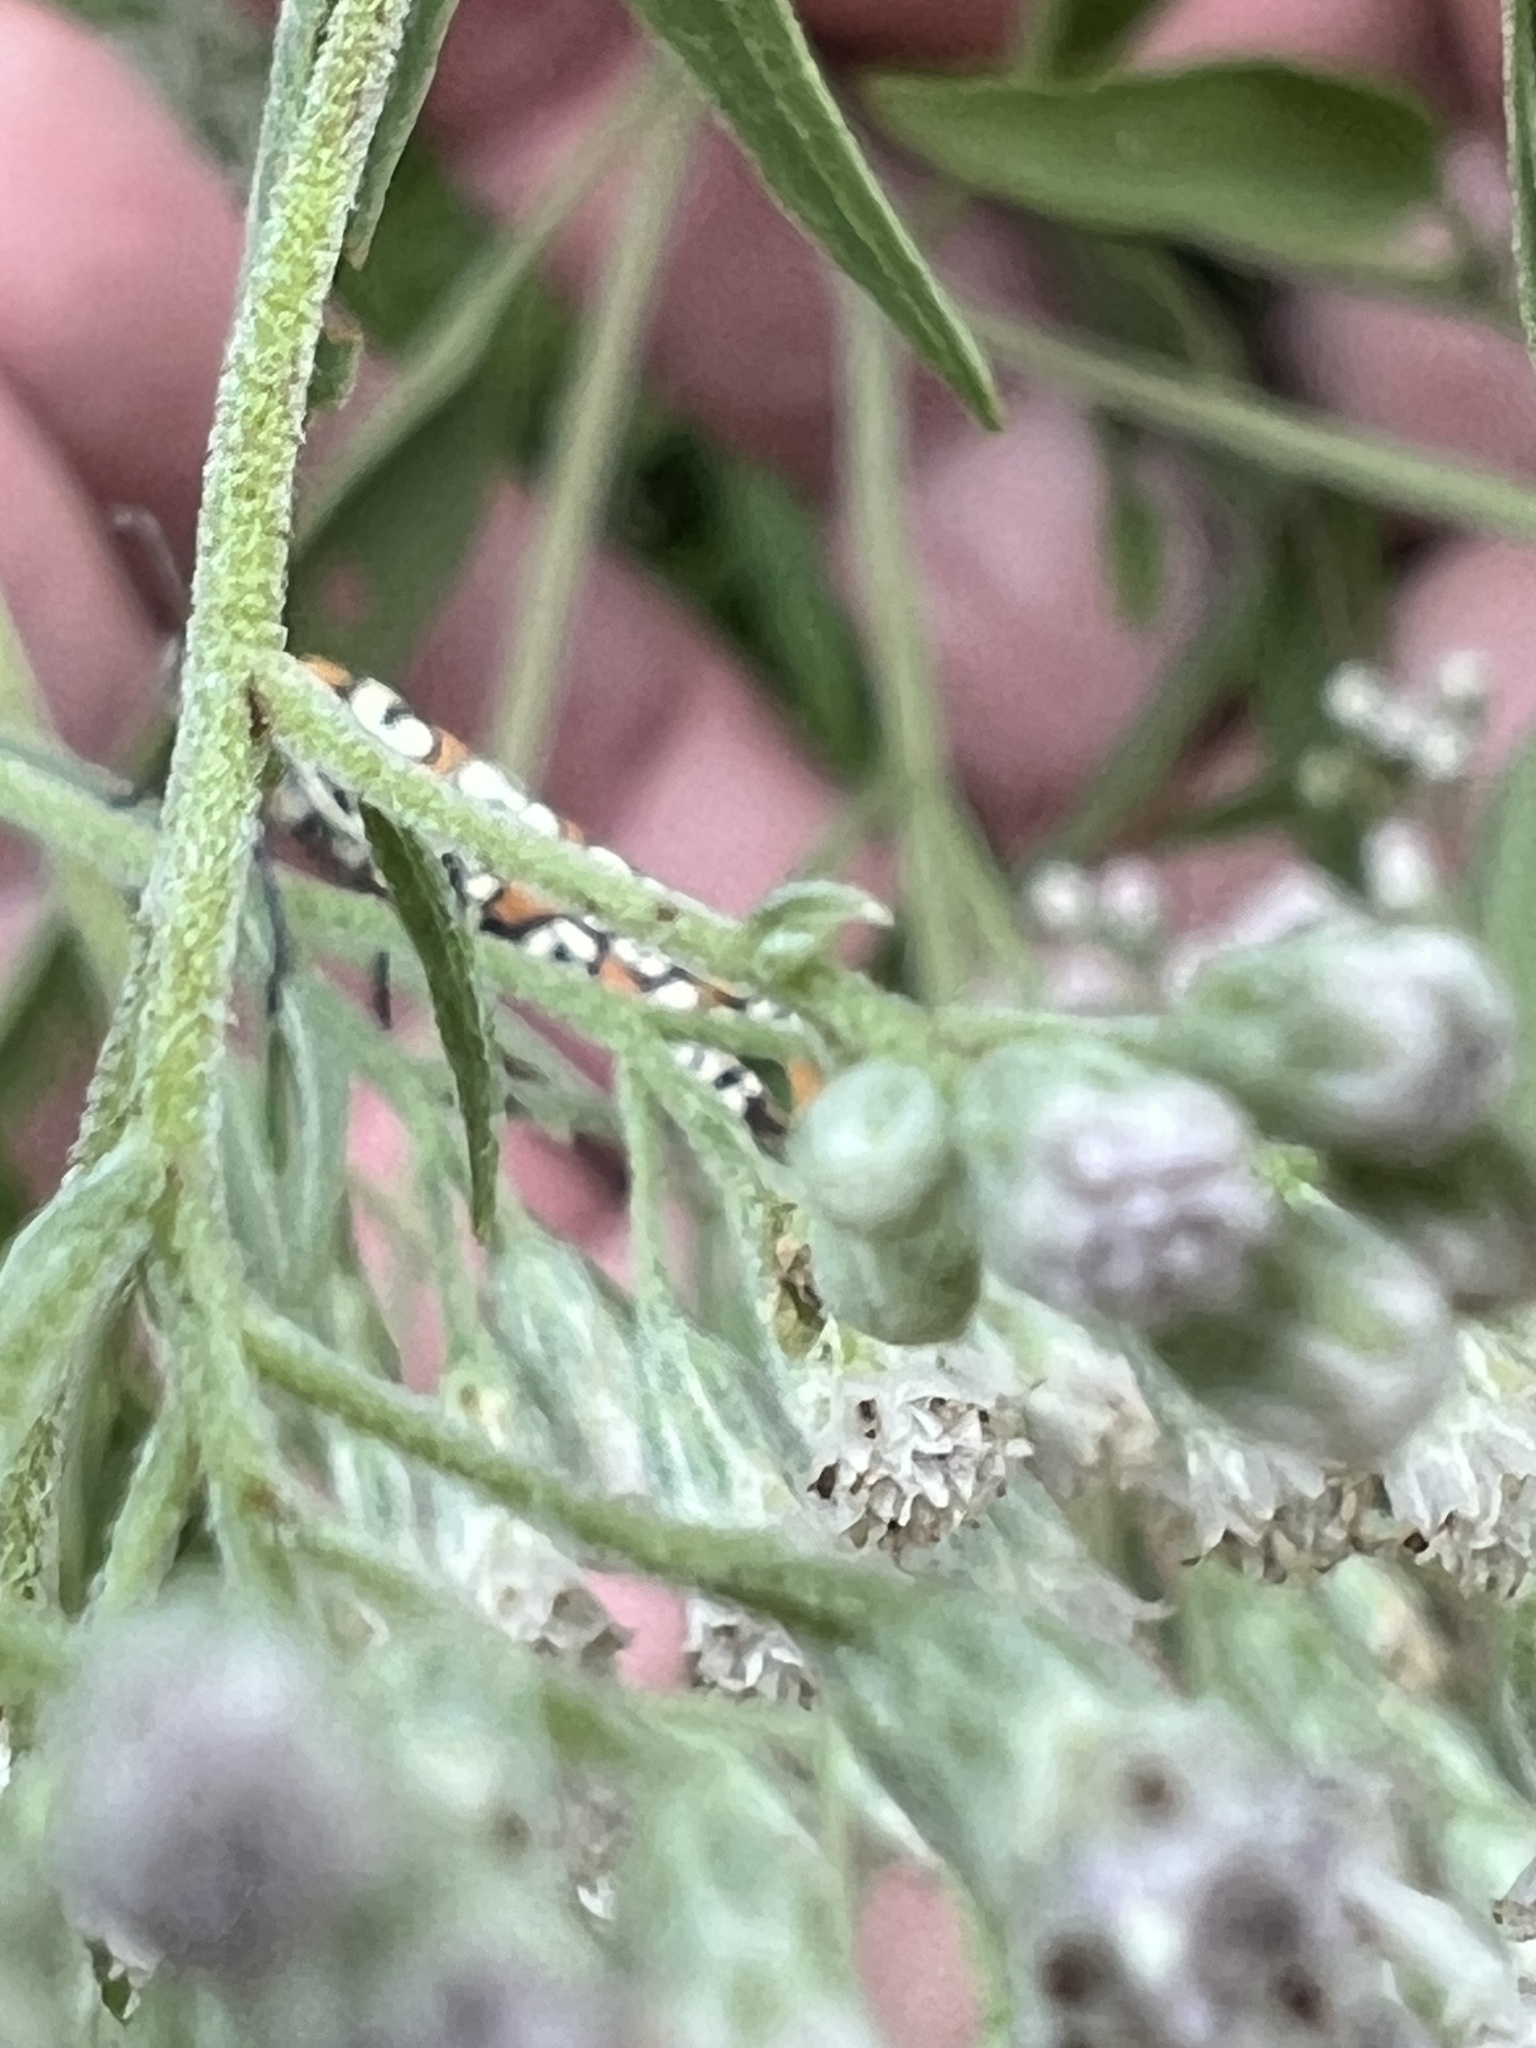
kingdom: Animalia
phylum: Arthropoda
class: Insecta
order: Lepidoptera
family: Attevidae
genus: Atteva
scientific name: Atteva punctella
